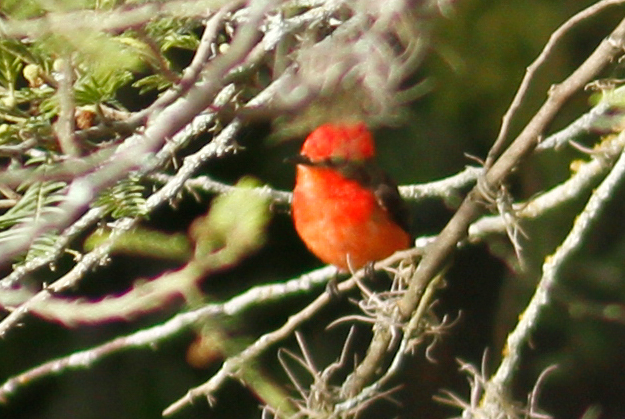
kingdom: Animalia
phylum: Chordata
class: Aves
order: Passeriformes
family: Tyrannidae
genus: Pyrocephalus
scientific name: Pyrocephalus rubinus
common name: Vermilion flycatcher
